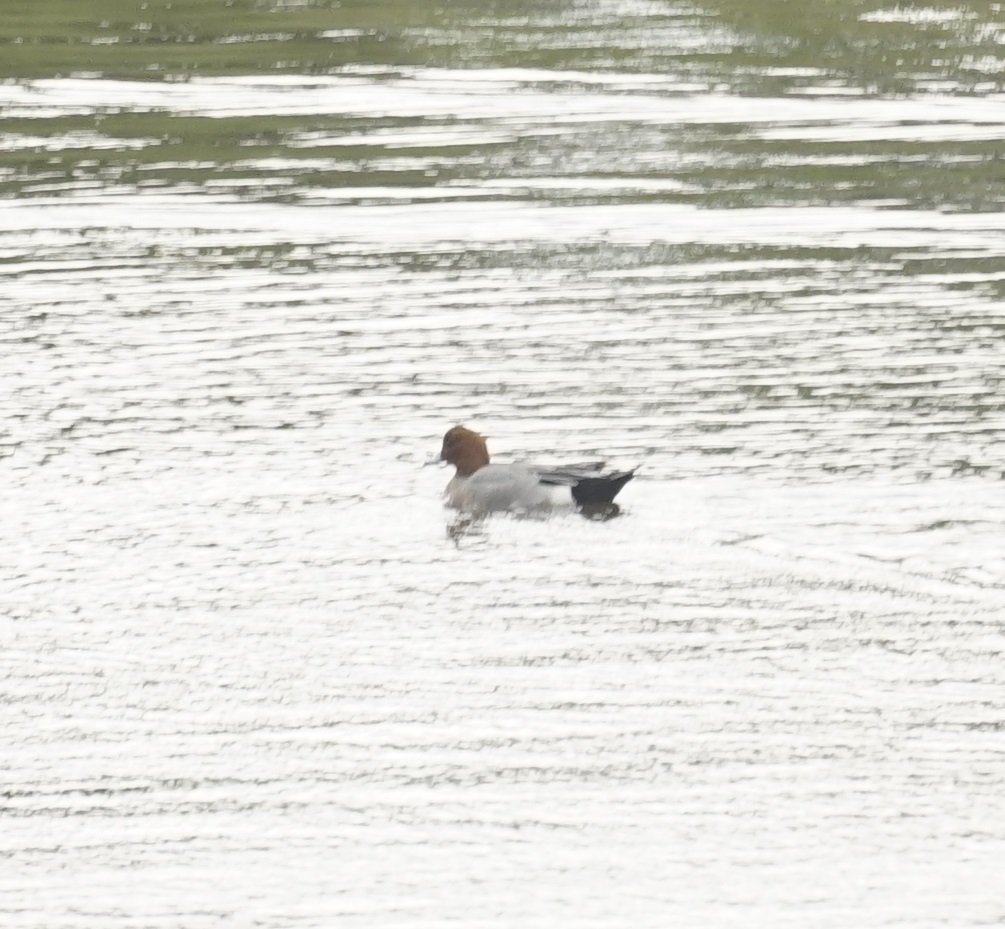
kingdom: Animalia
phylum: Chordata
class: Aves
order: Anseriformes
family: Anatidae
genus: Mareca
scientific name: Mareca penelope
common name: Eurasian wigeon
